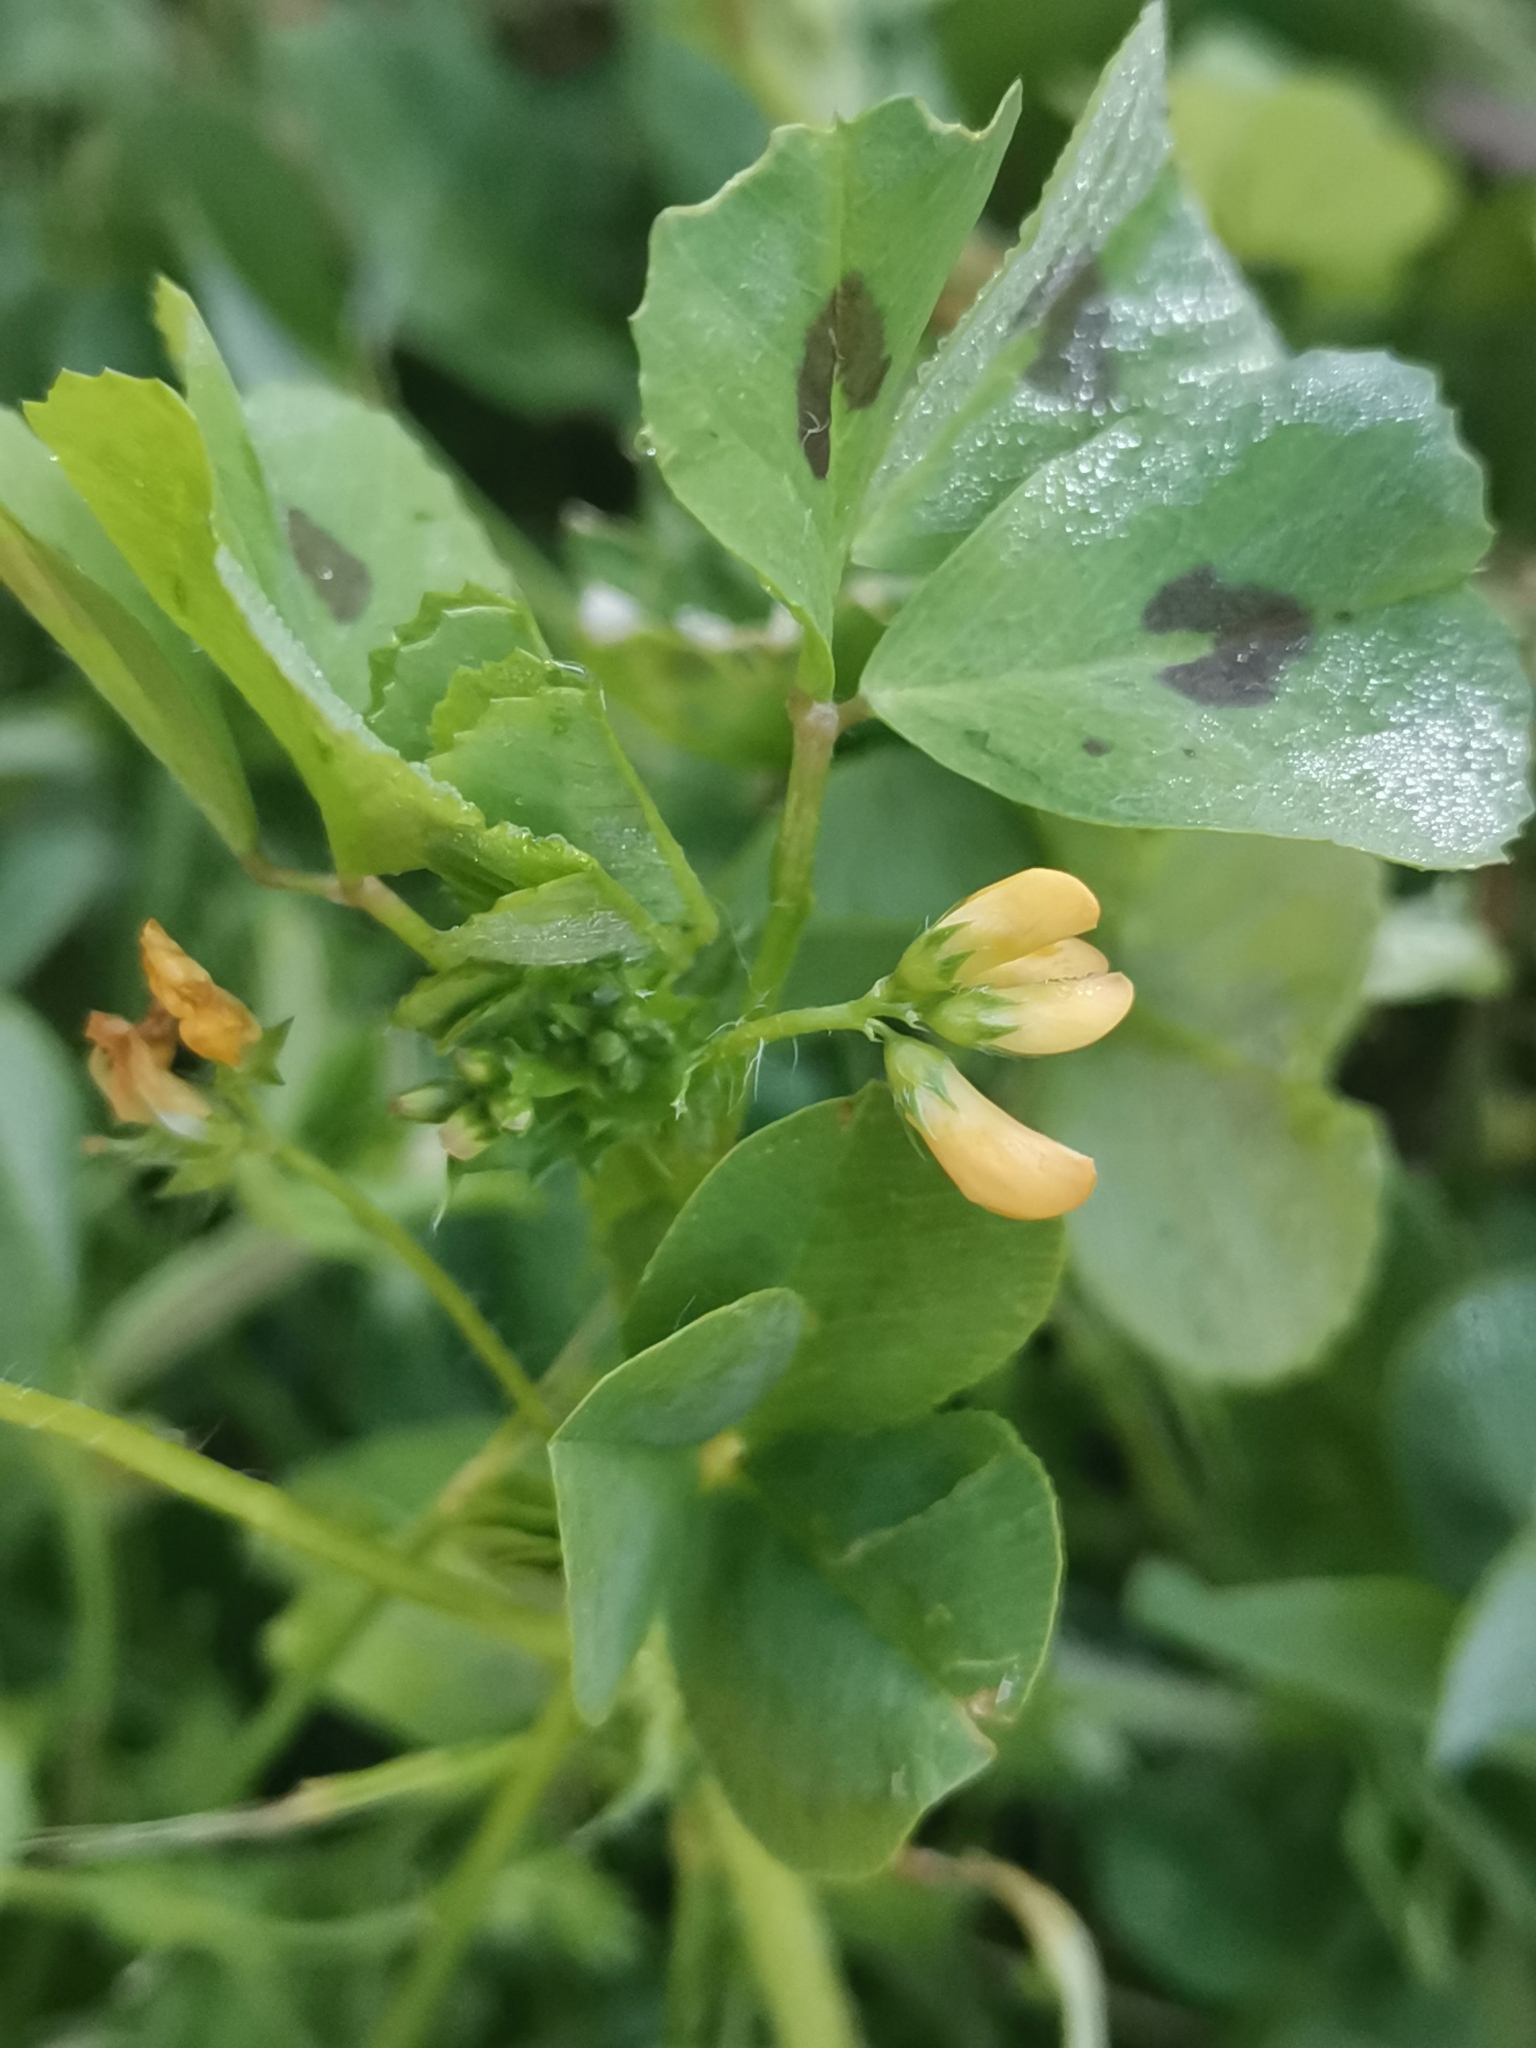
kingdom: Plantae
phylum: Tracheophyta
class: Magnoliopsida
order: Fabales
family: Fabaceae
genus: Medicago
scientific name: Medicago arabica
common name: Spotted medick
